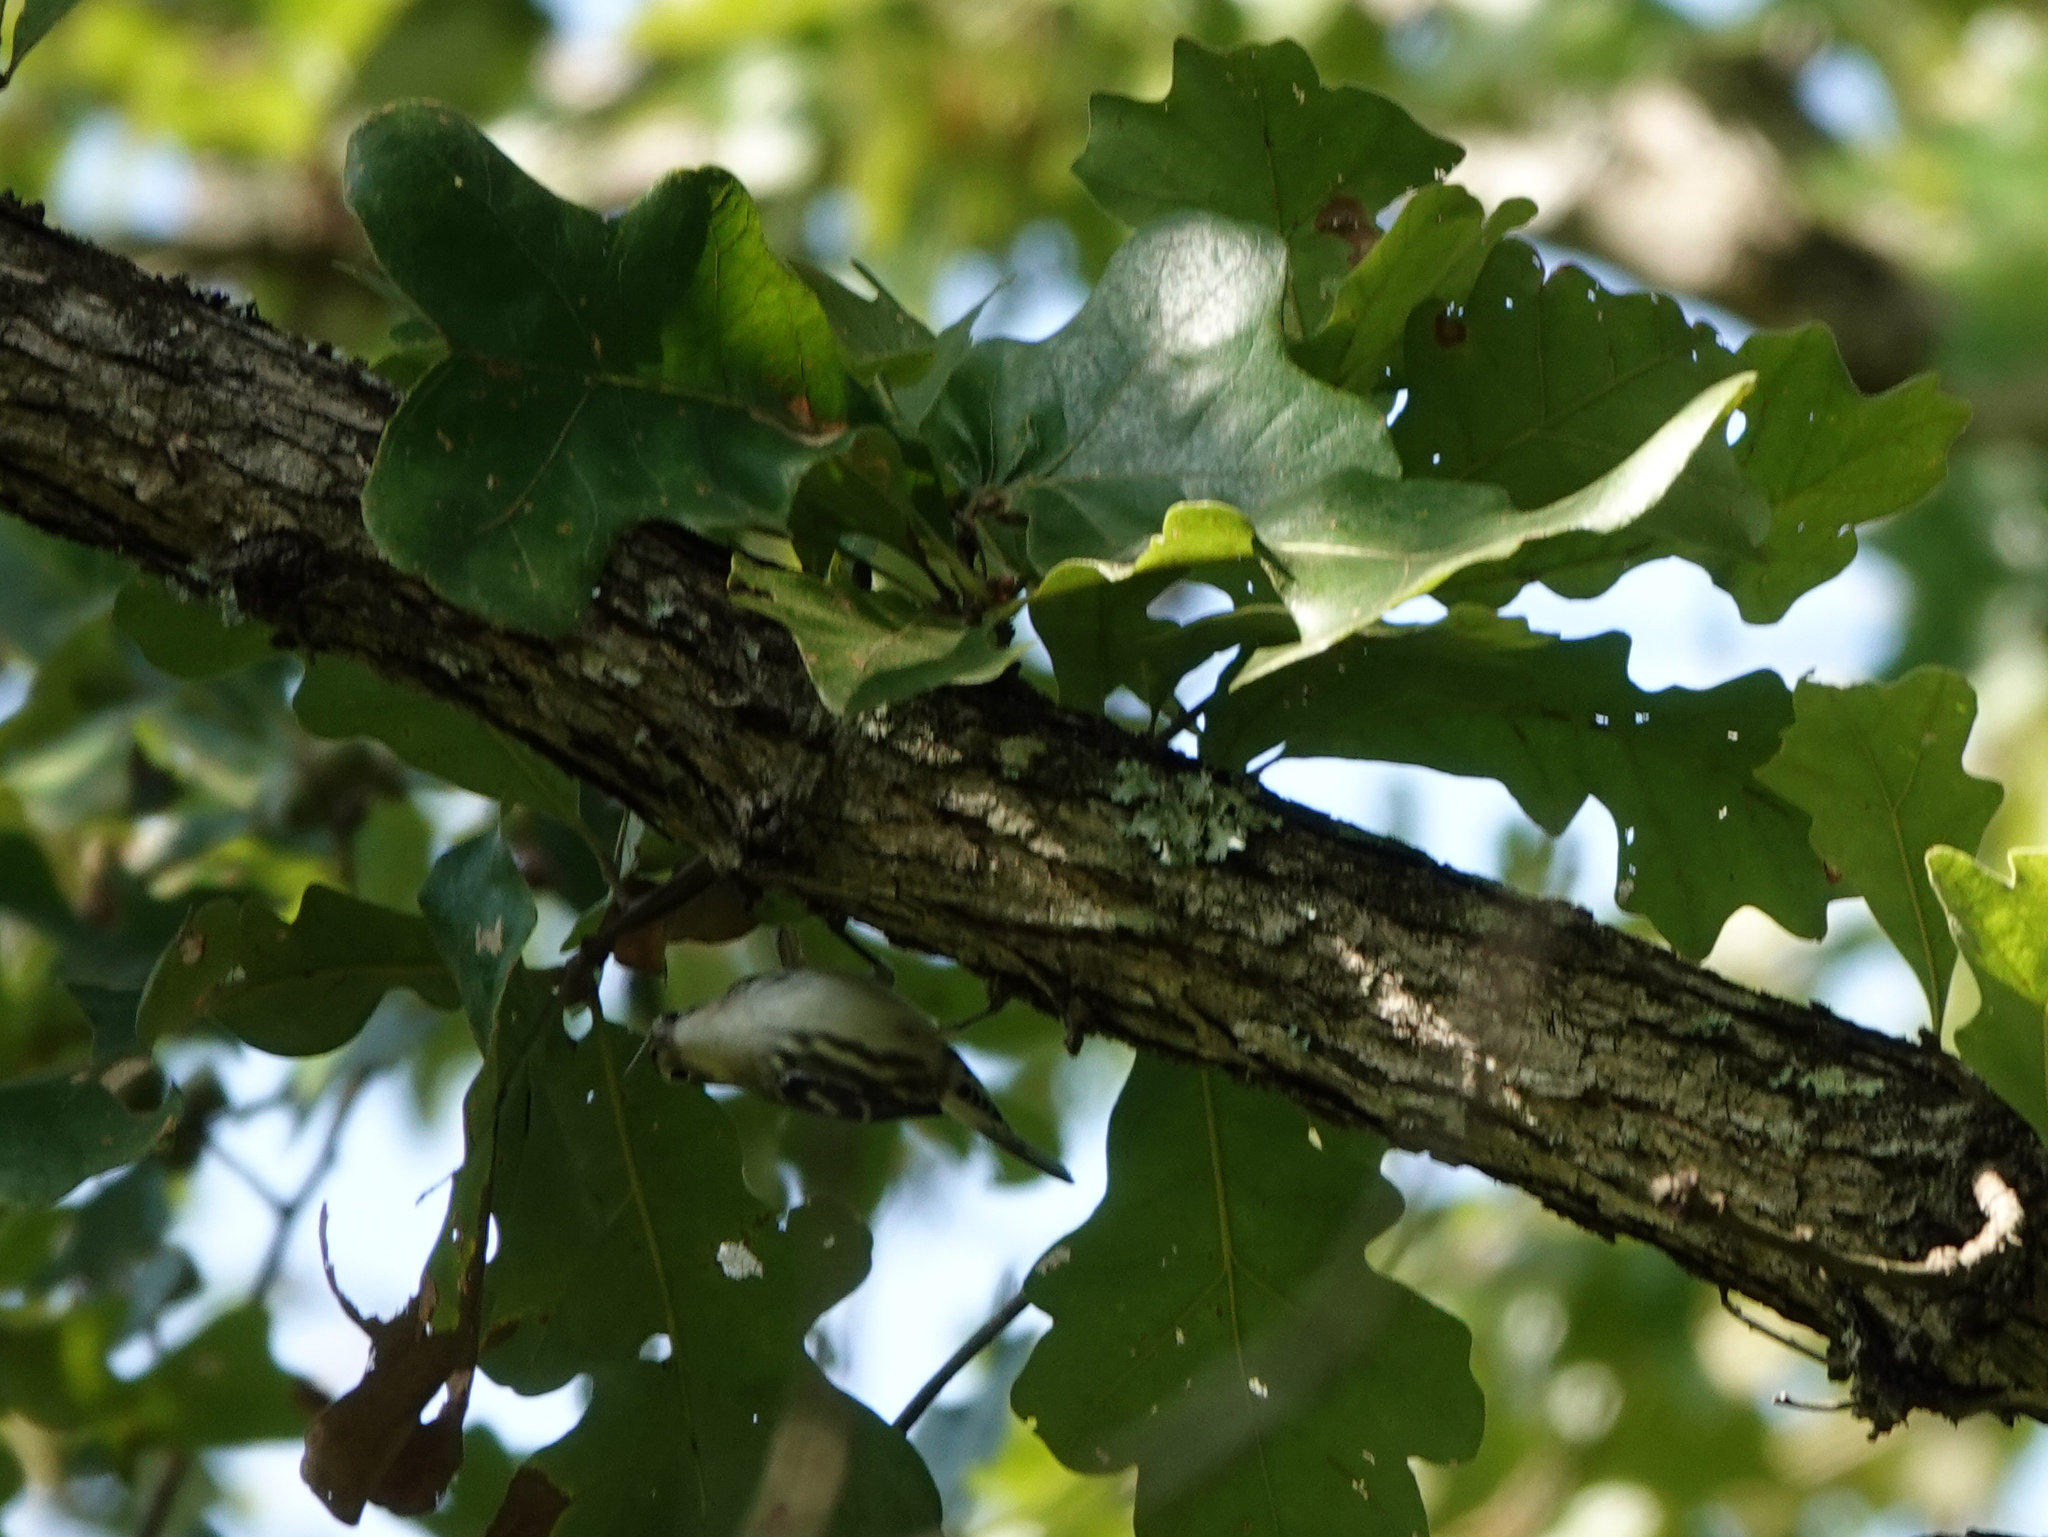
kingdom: Animalia
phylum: Chordata
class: Aves
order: Passeriformes
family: Parulidae
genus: Mniotilta
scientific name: Mniotilta varia
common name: Black-and-white warbler
